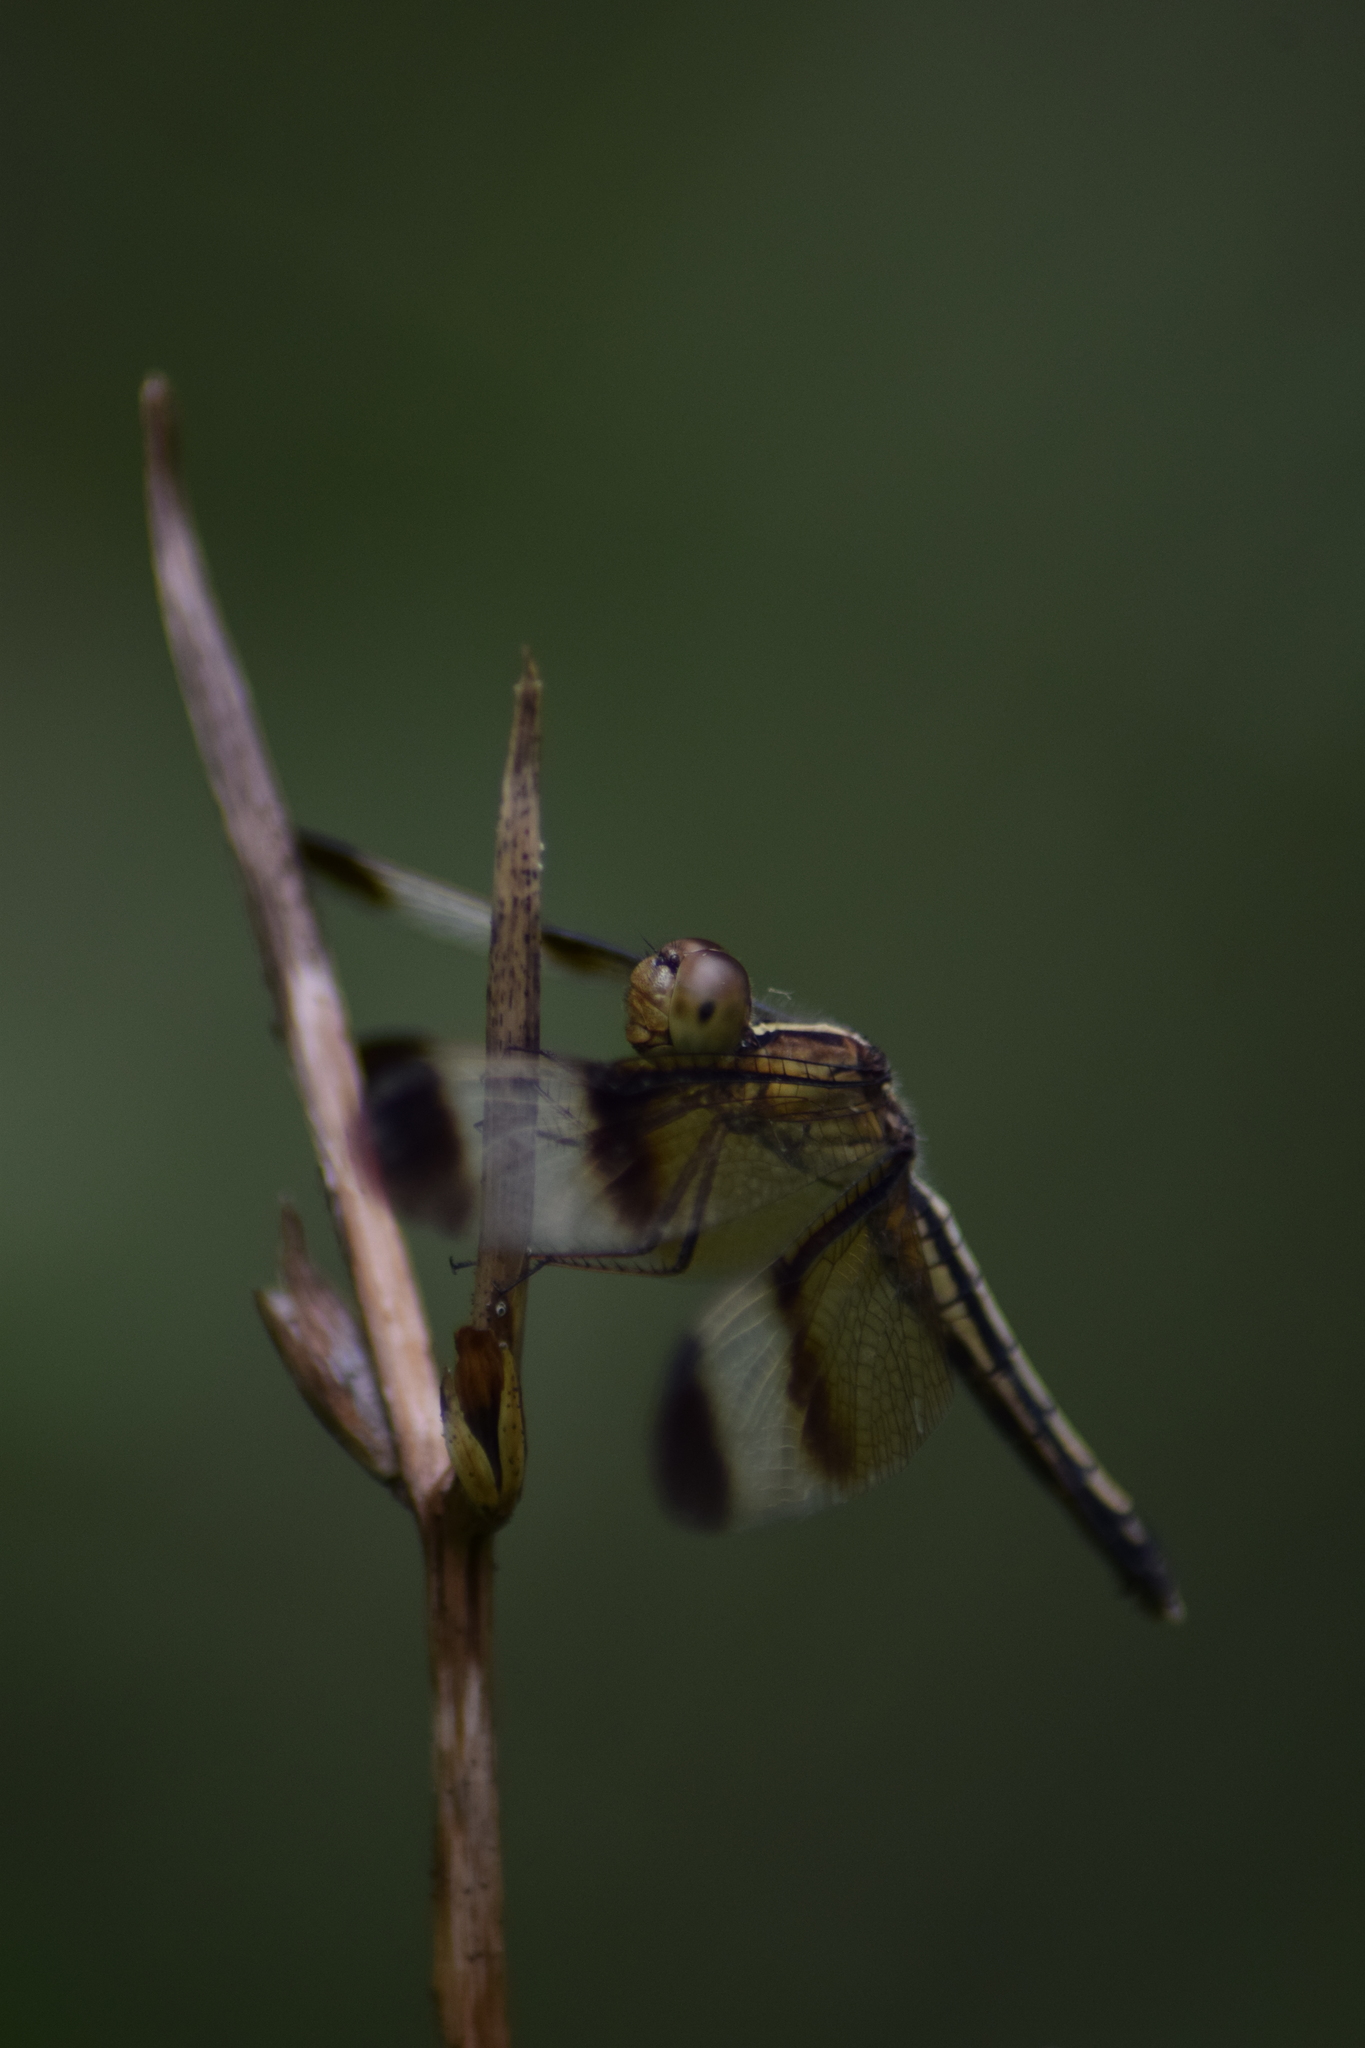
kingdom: Animalia
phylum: Arthropoda
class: Insecta
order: Odonata
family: Libellulidae
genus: Neurothemis
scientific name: Neurothemis tullia
